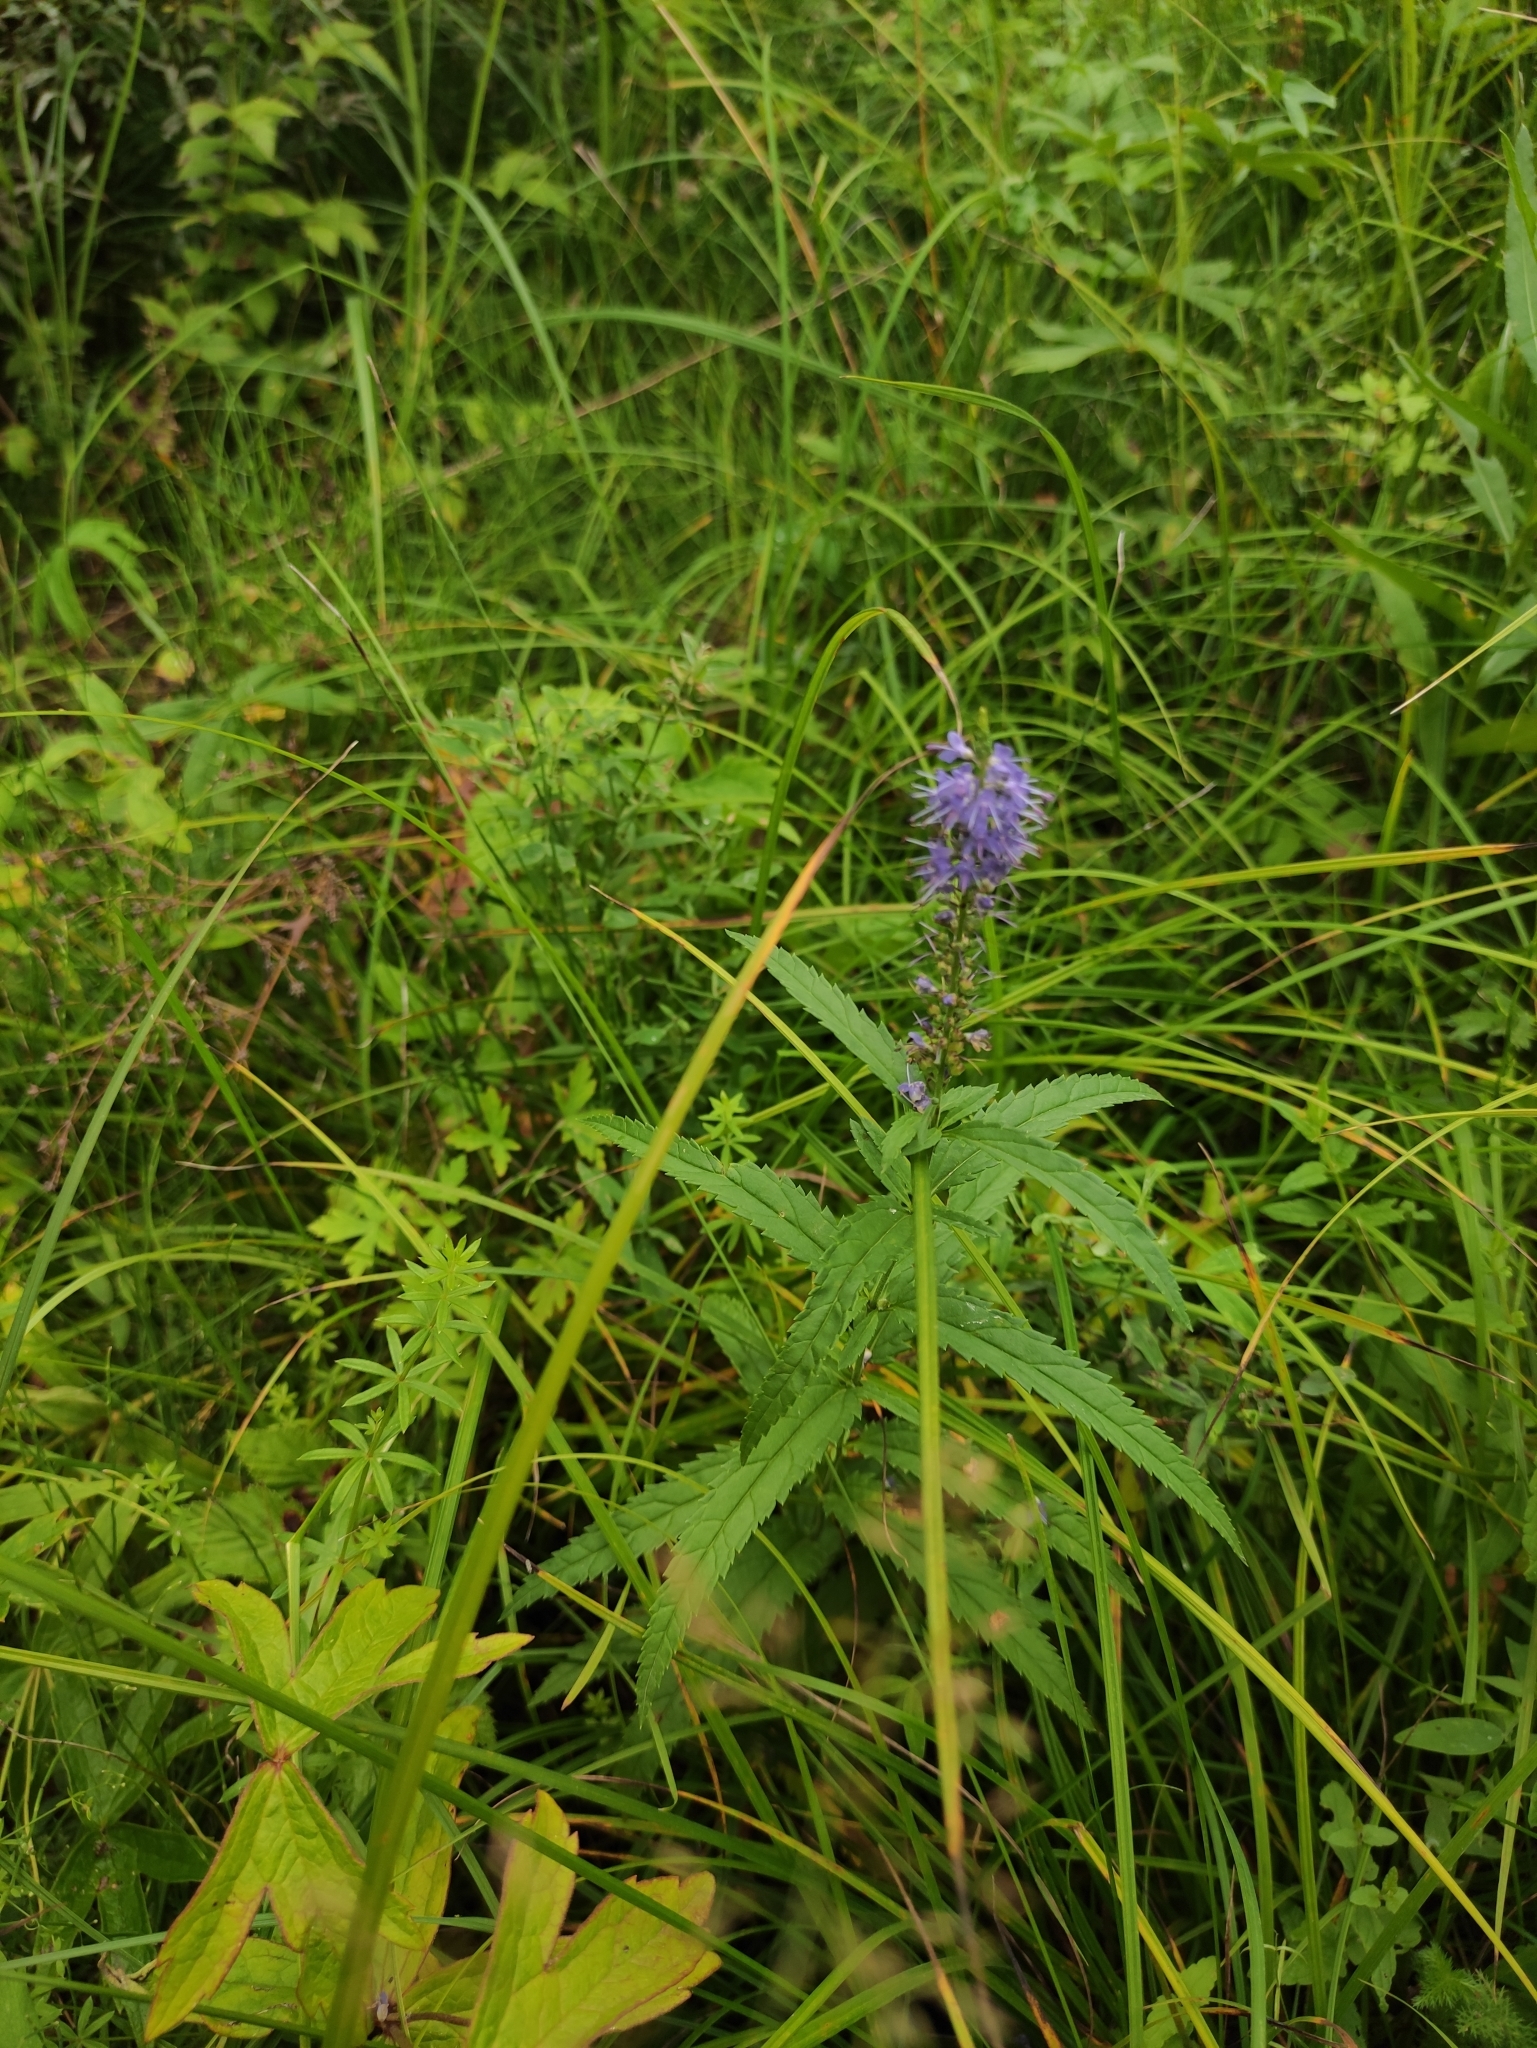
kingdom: Plantae
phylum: Tracheophyta
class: Magnoliopsida
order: Lamiales
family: Plantaginaceae
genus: Veronica
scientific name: Veronica longifolia
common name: Garden speedwell
